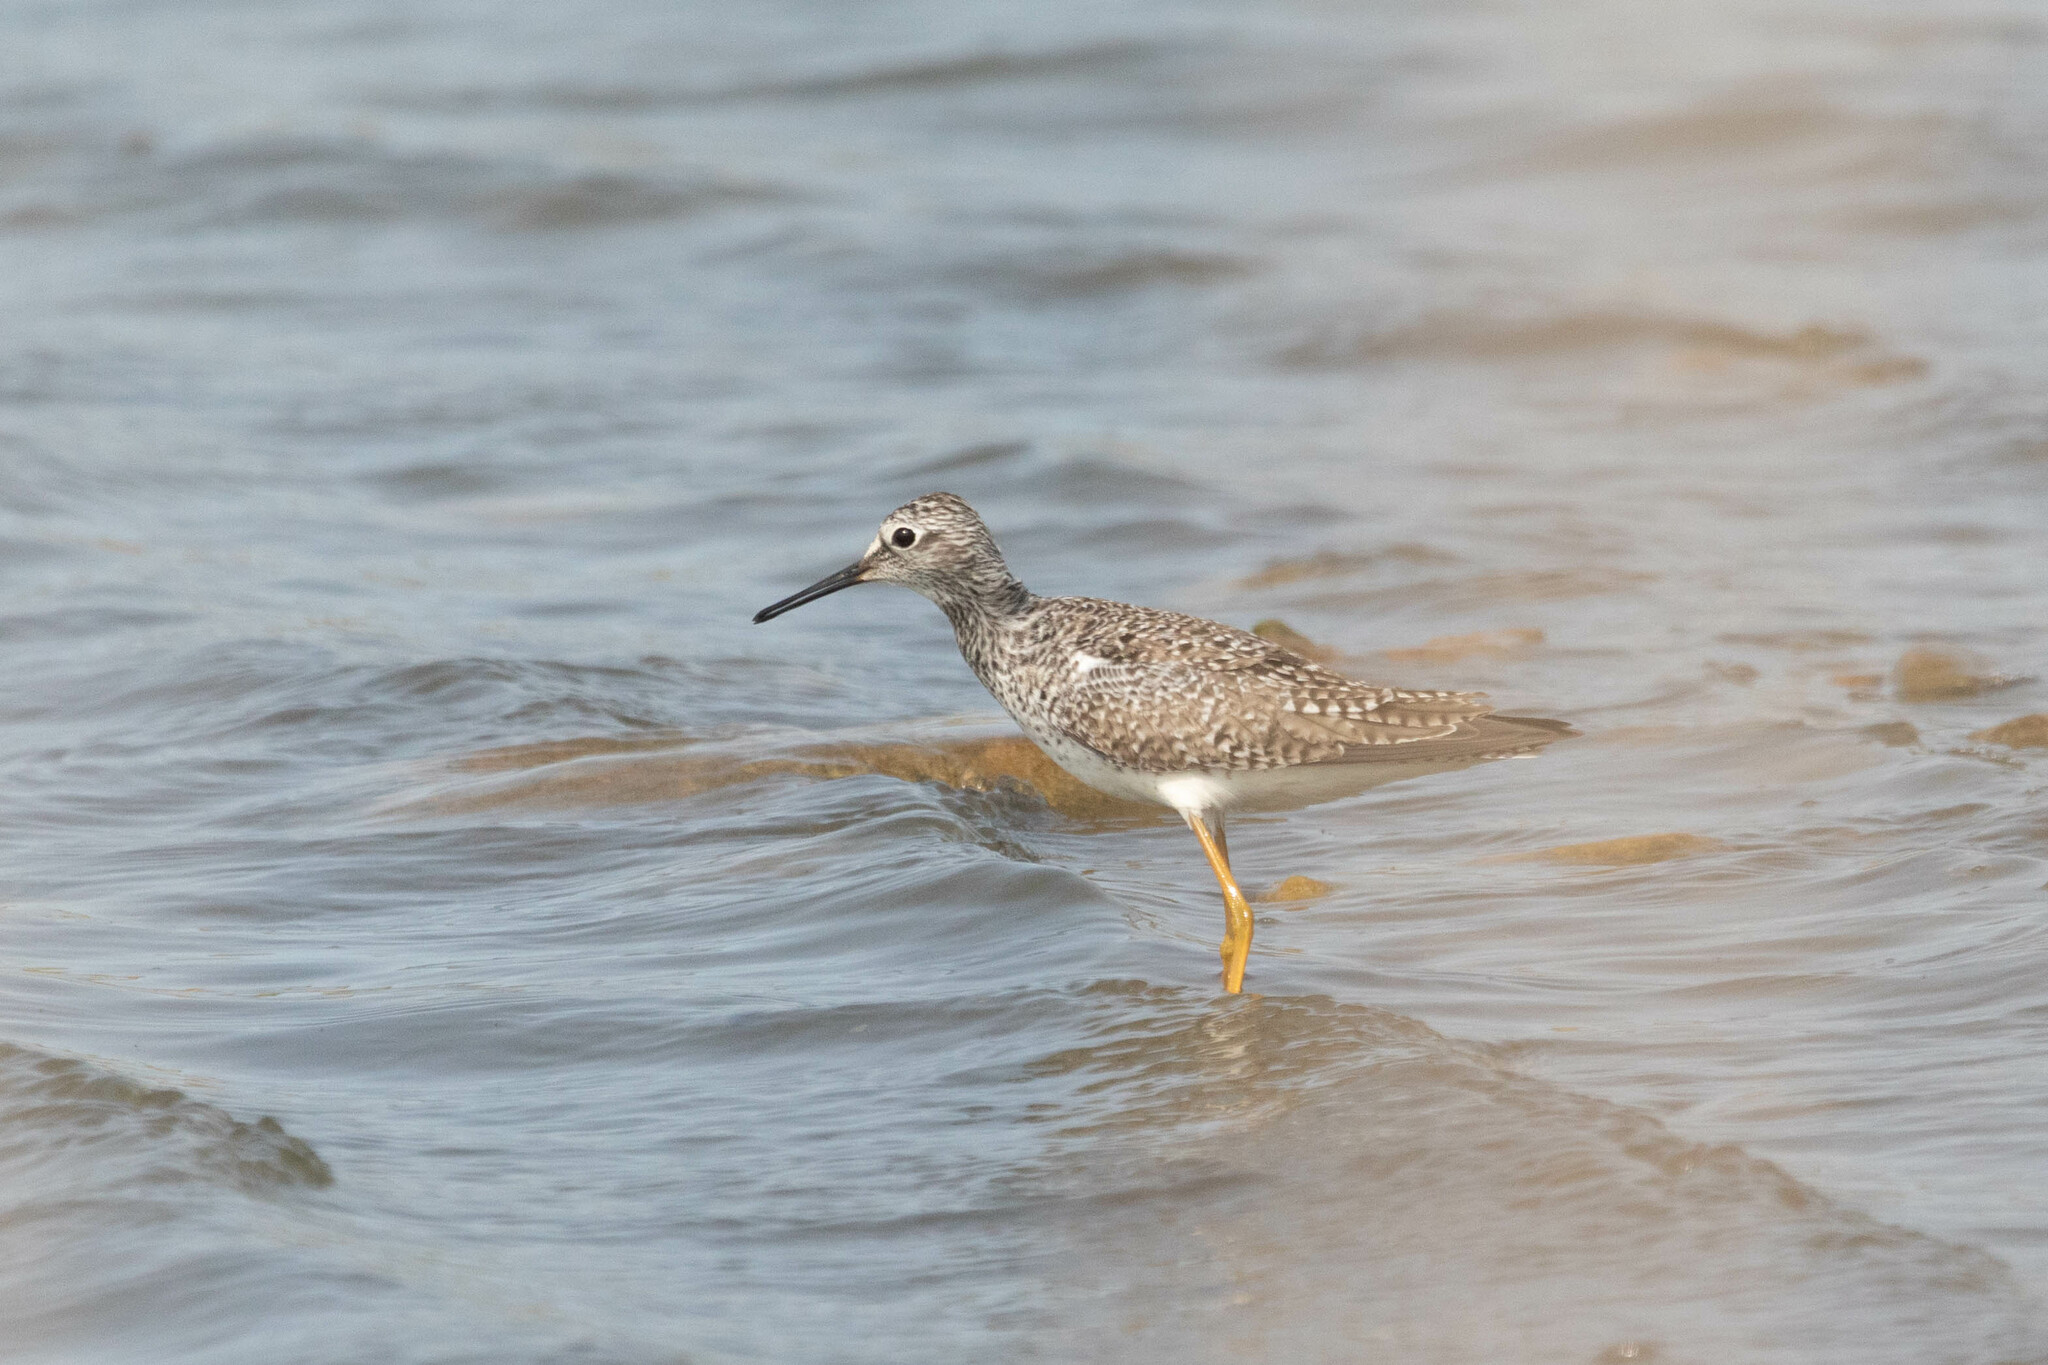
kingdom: Animalia
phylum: Chordata
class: Aves
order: Charadriiformes
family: Scolopacidae
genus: Tringa
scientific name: Tringa flavipes
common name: Lesser yellowlegs
